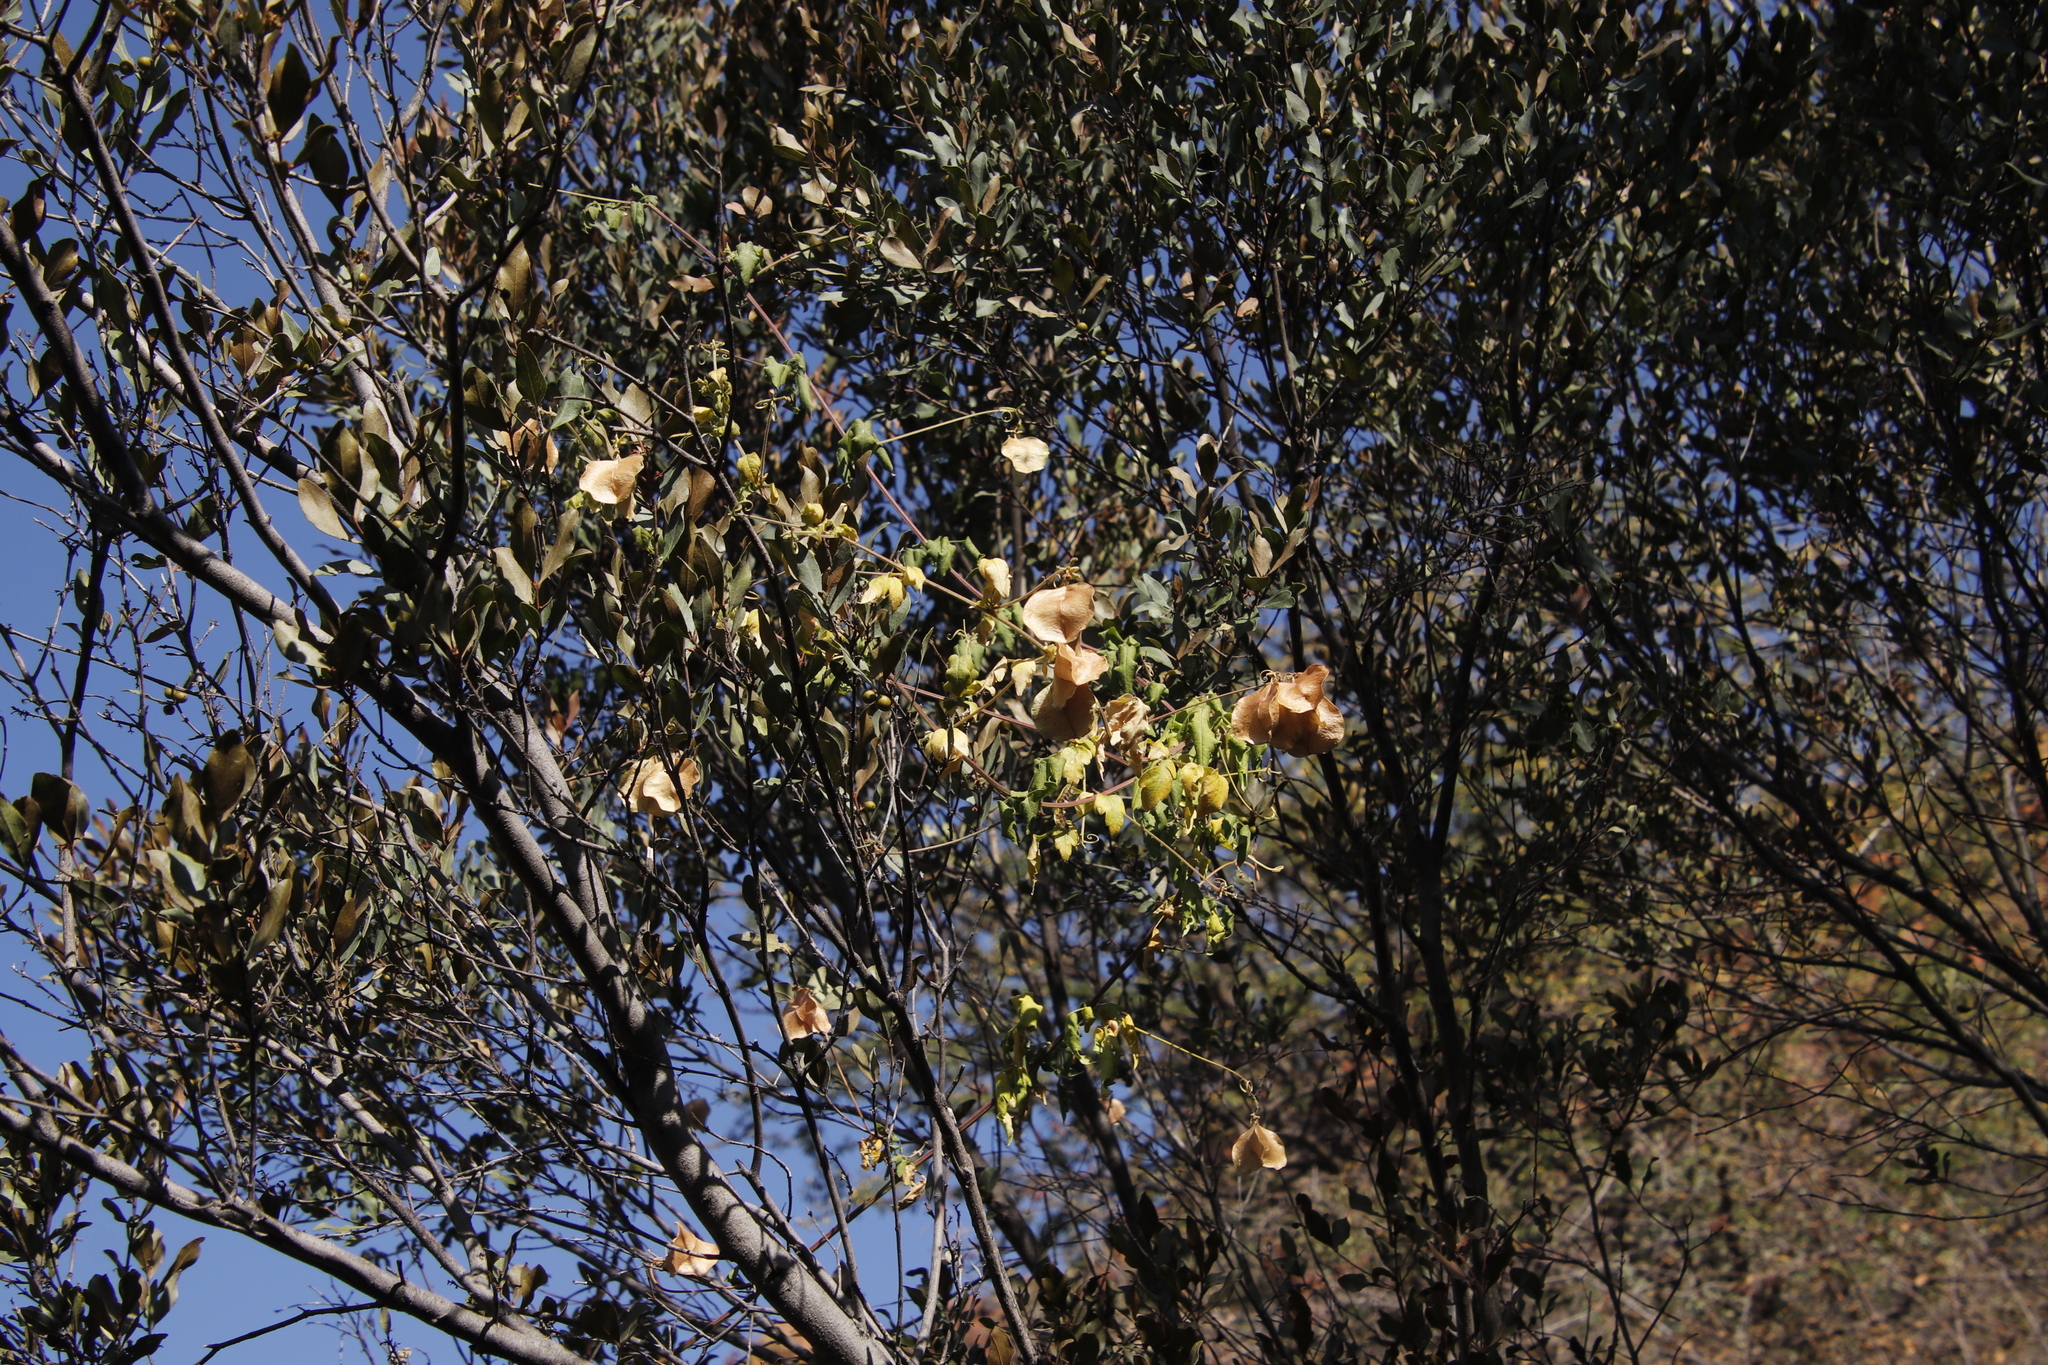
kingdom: Plantae
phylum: Tracheophyta
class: Magnoliopsida
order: Sapindales
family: Sapindaceae
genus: Cardiospermum
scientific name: Cardiospermum corindum
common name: Faux persil
